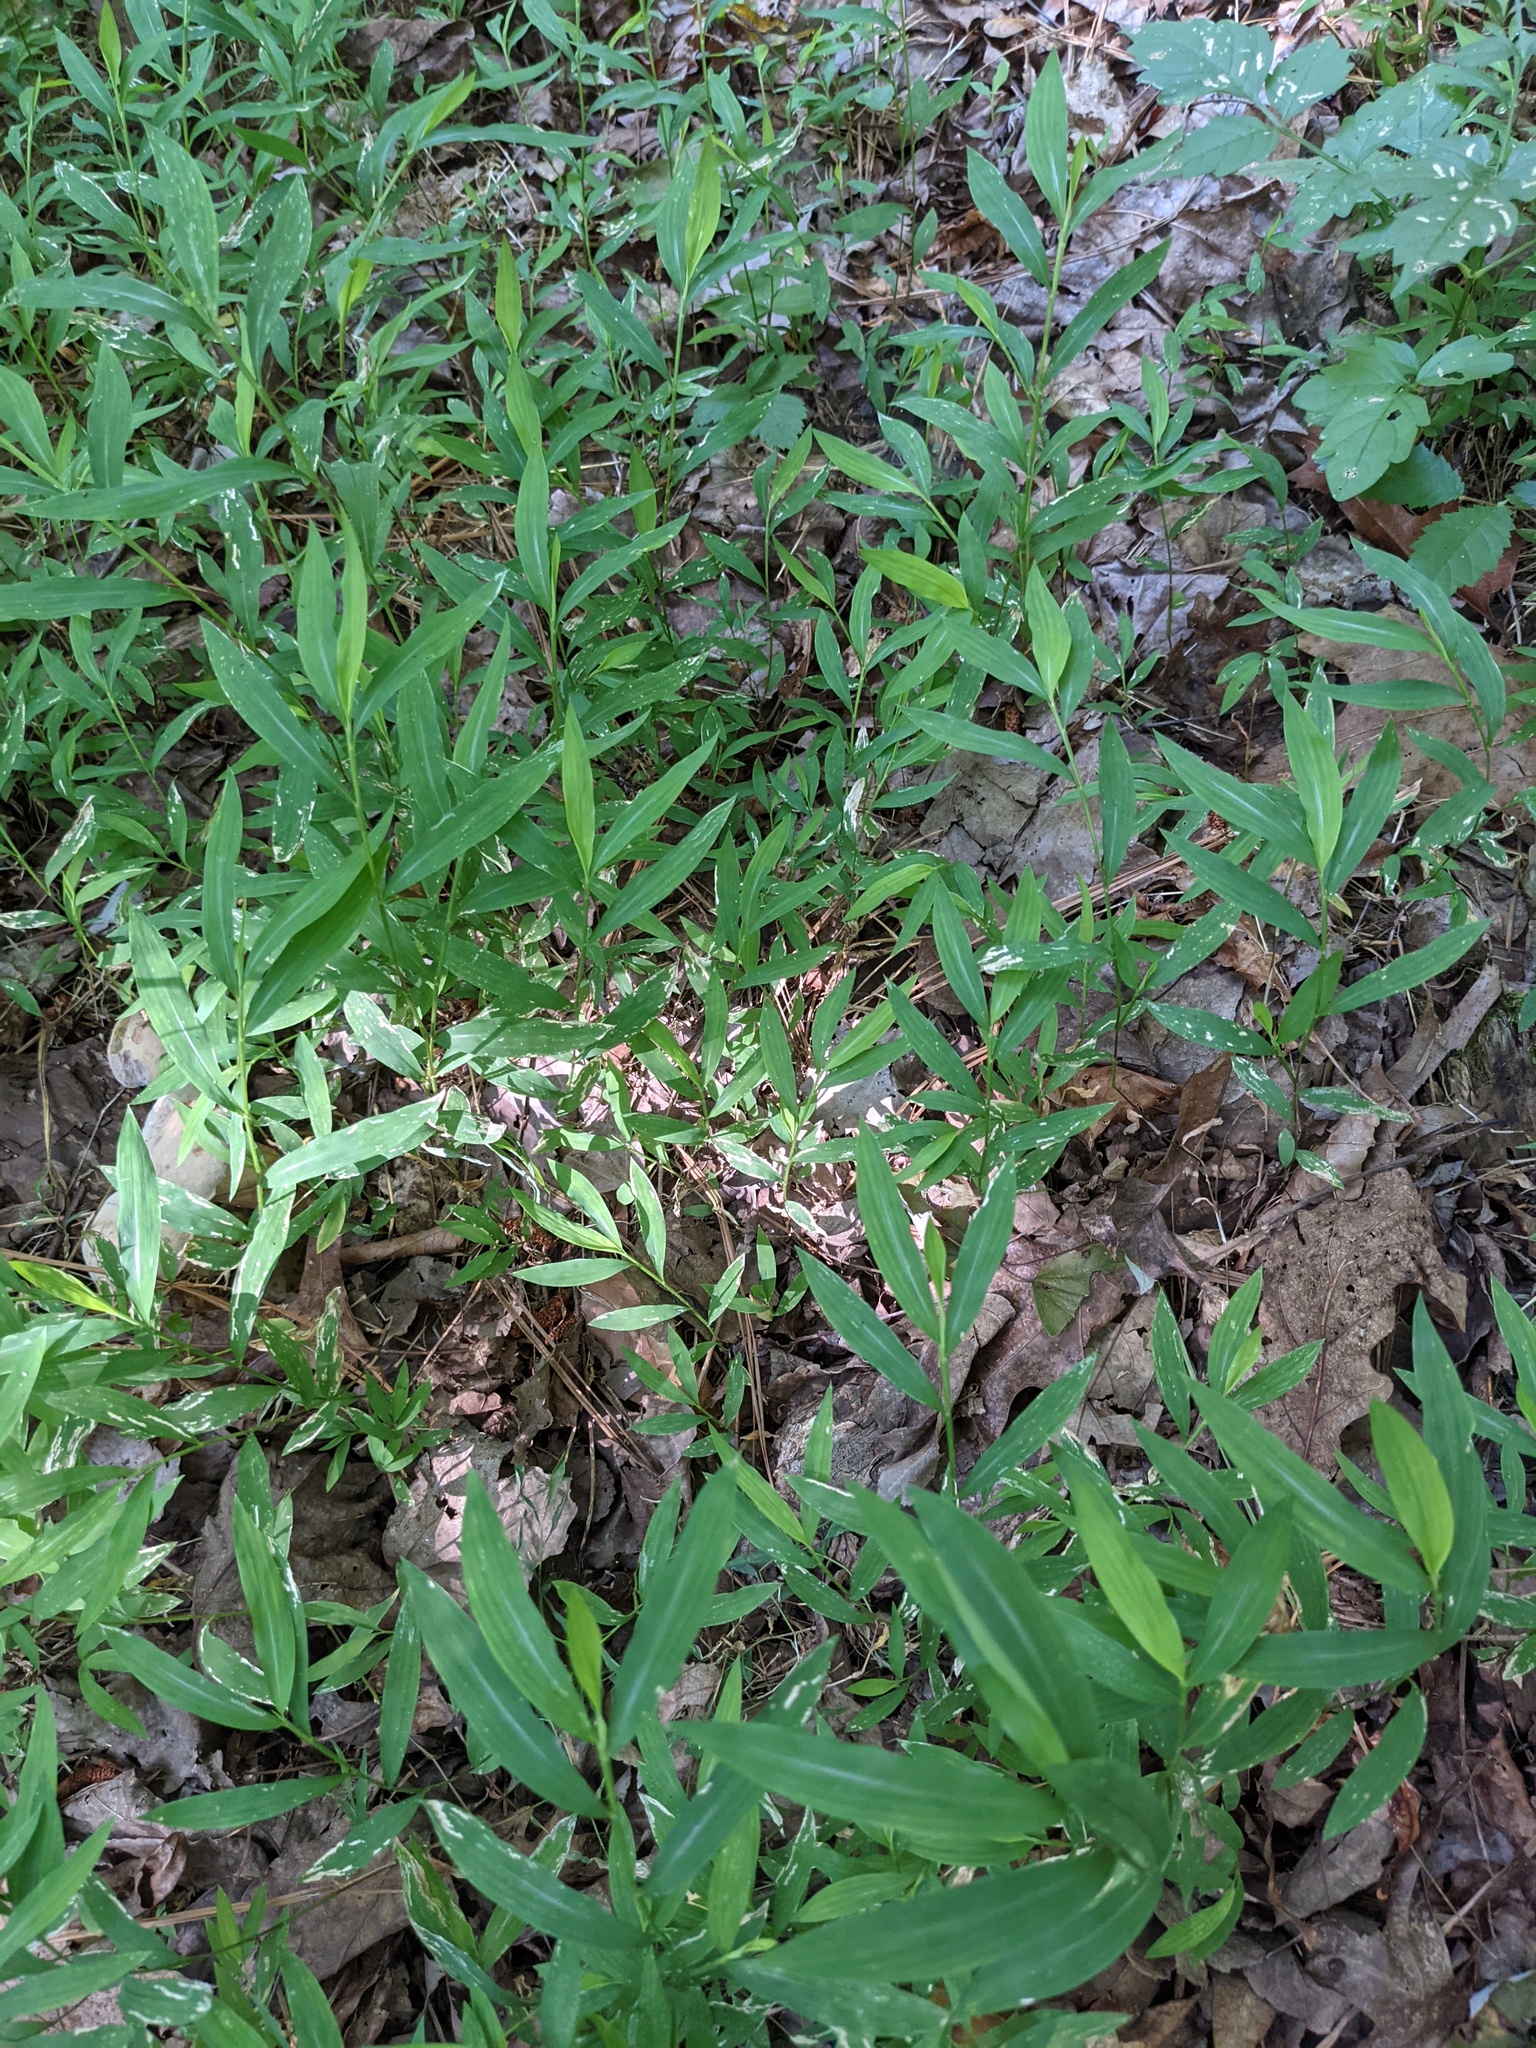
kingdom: Plantae
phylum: Tracheophyta
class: Liliopsida
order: Poales
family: Poaceae
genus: Microstegium
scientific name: Microstegium vimineum
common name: Japanese stiltgrass
